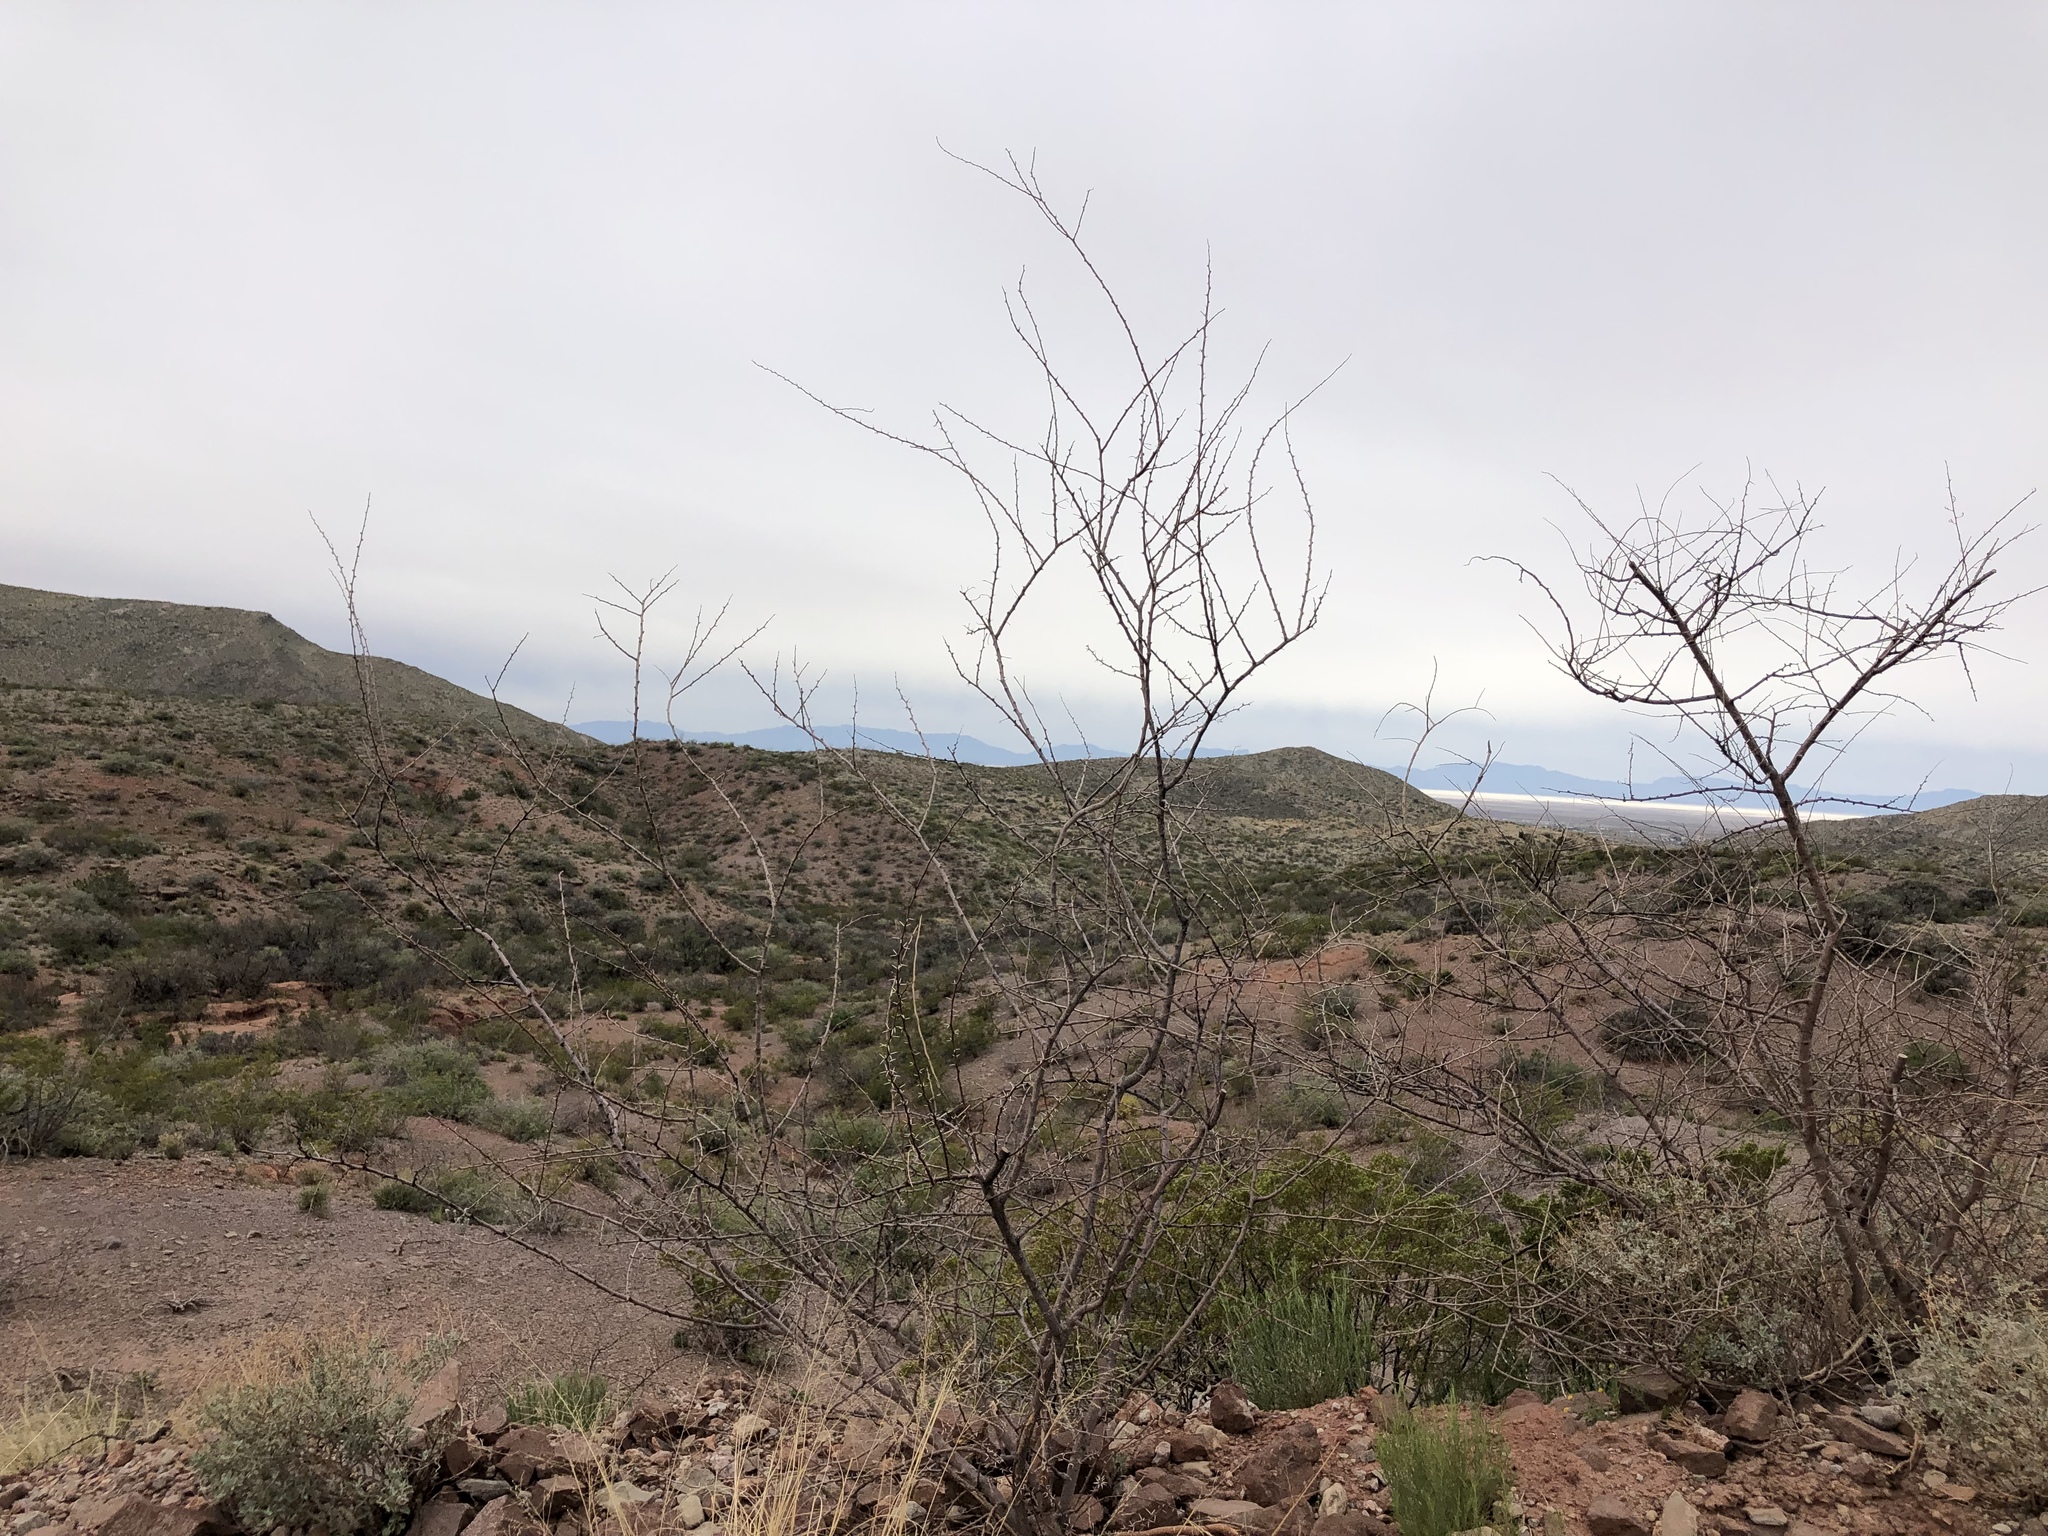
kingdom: Plantae
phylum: Tracheophyta
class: Magnoliopsida
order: Fabales
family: Fabaceae
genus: Vachellia
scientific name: Vachellia constricta
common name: Mescat acacia
